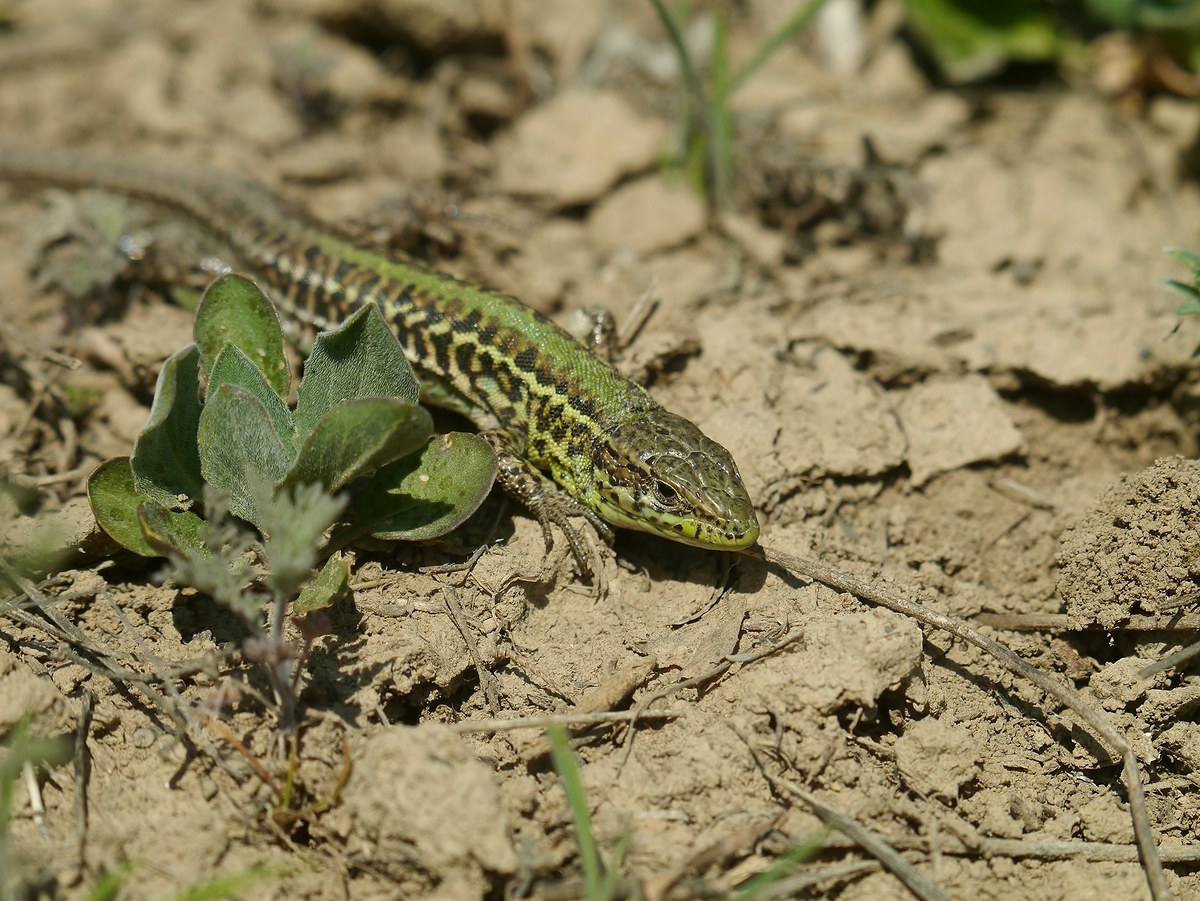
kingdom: Animalia
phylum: Chordata
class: Squamata
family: Lacertidae
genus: Podarcis
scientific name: Podarcis tauricus
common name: Balkan wall lizard
